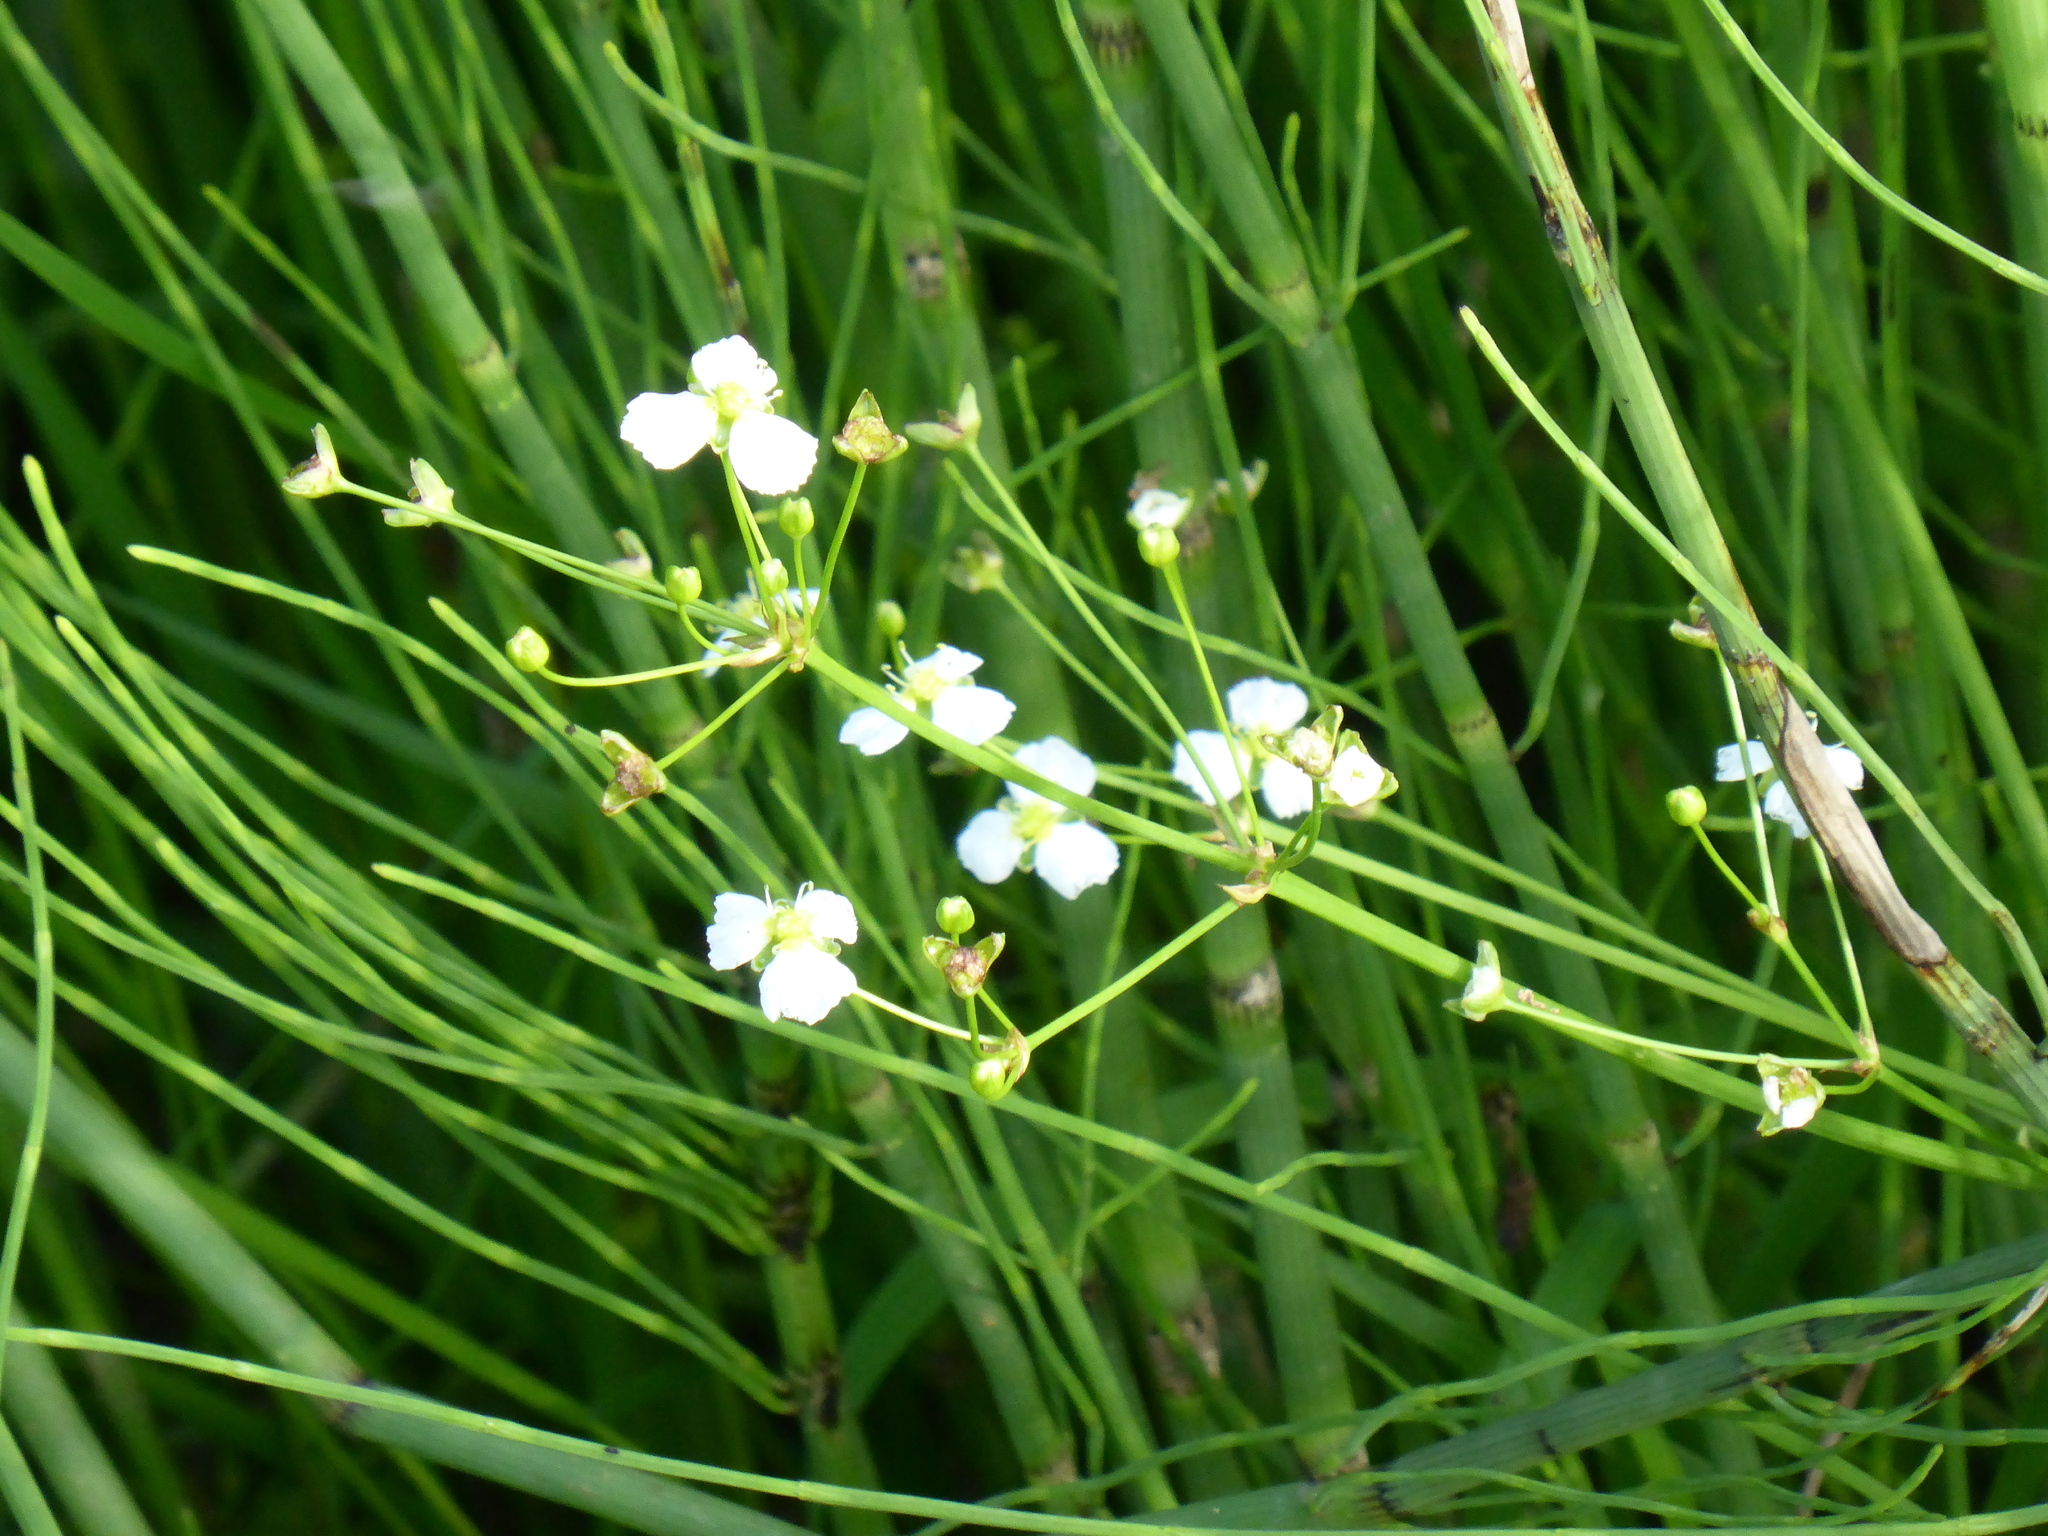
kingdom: Plantae
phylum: Tracheophyta
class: Liliopsida
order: Alismatales
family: Alismataceae
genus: Alisma
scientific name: Alisma plantago-aquatica
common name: Water-plantain
